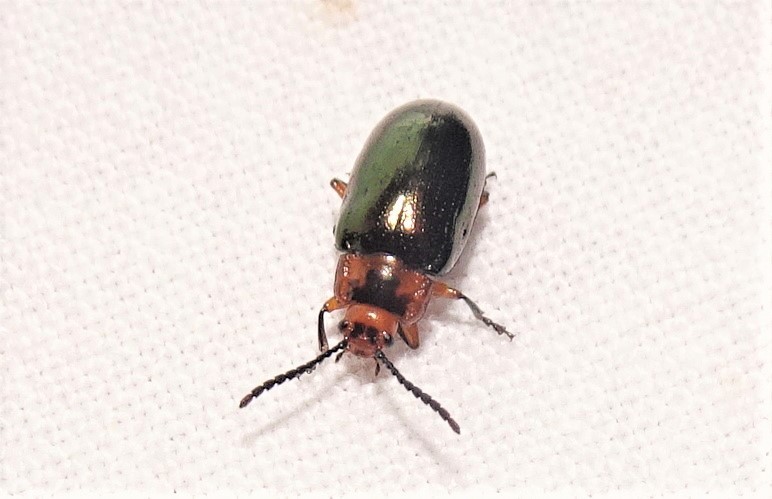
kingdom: Animalia
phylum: Arthropoda
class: Insecta
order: Coleoptera
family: Chrysomelidae
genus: Lamprolina
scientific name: Lamprolina
